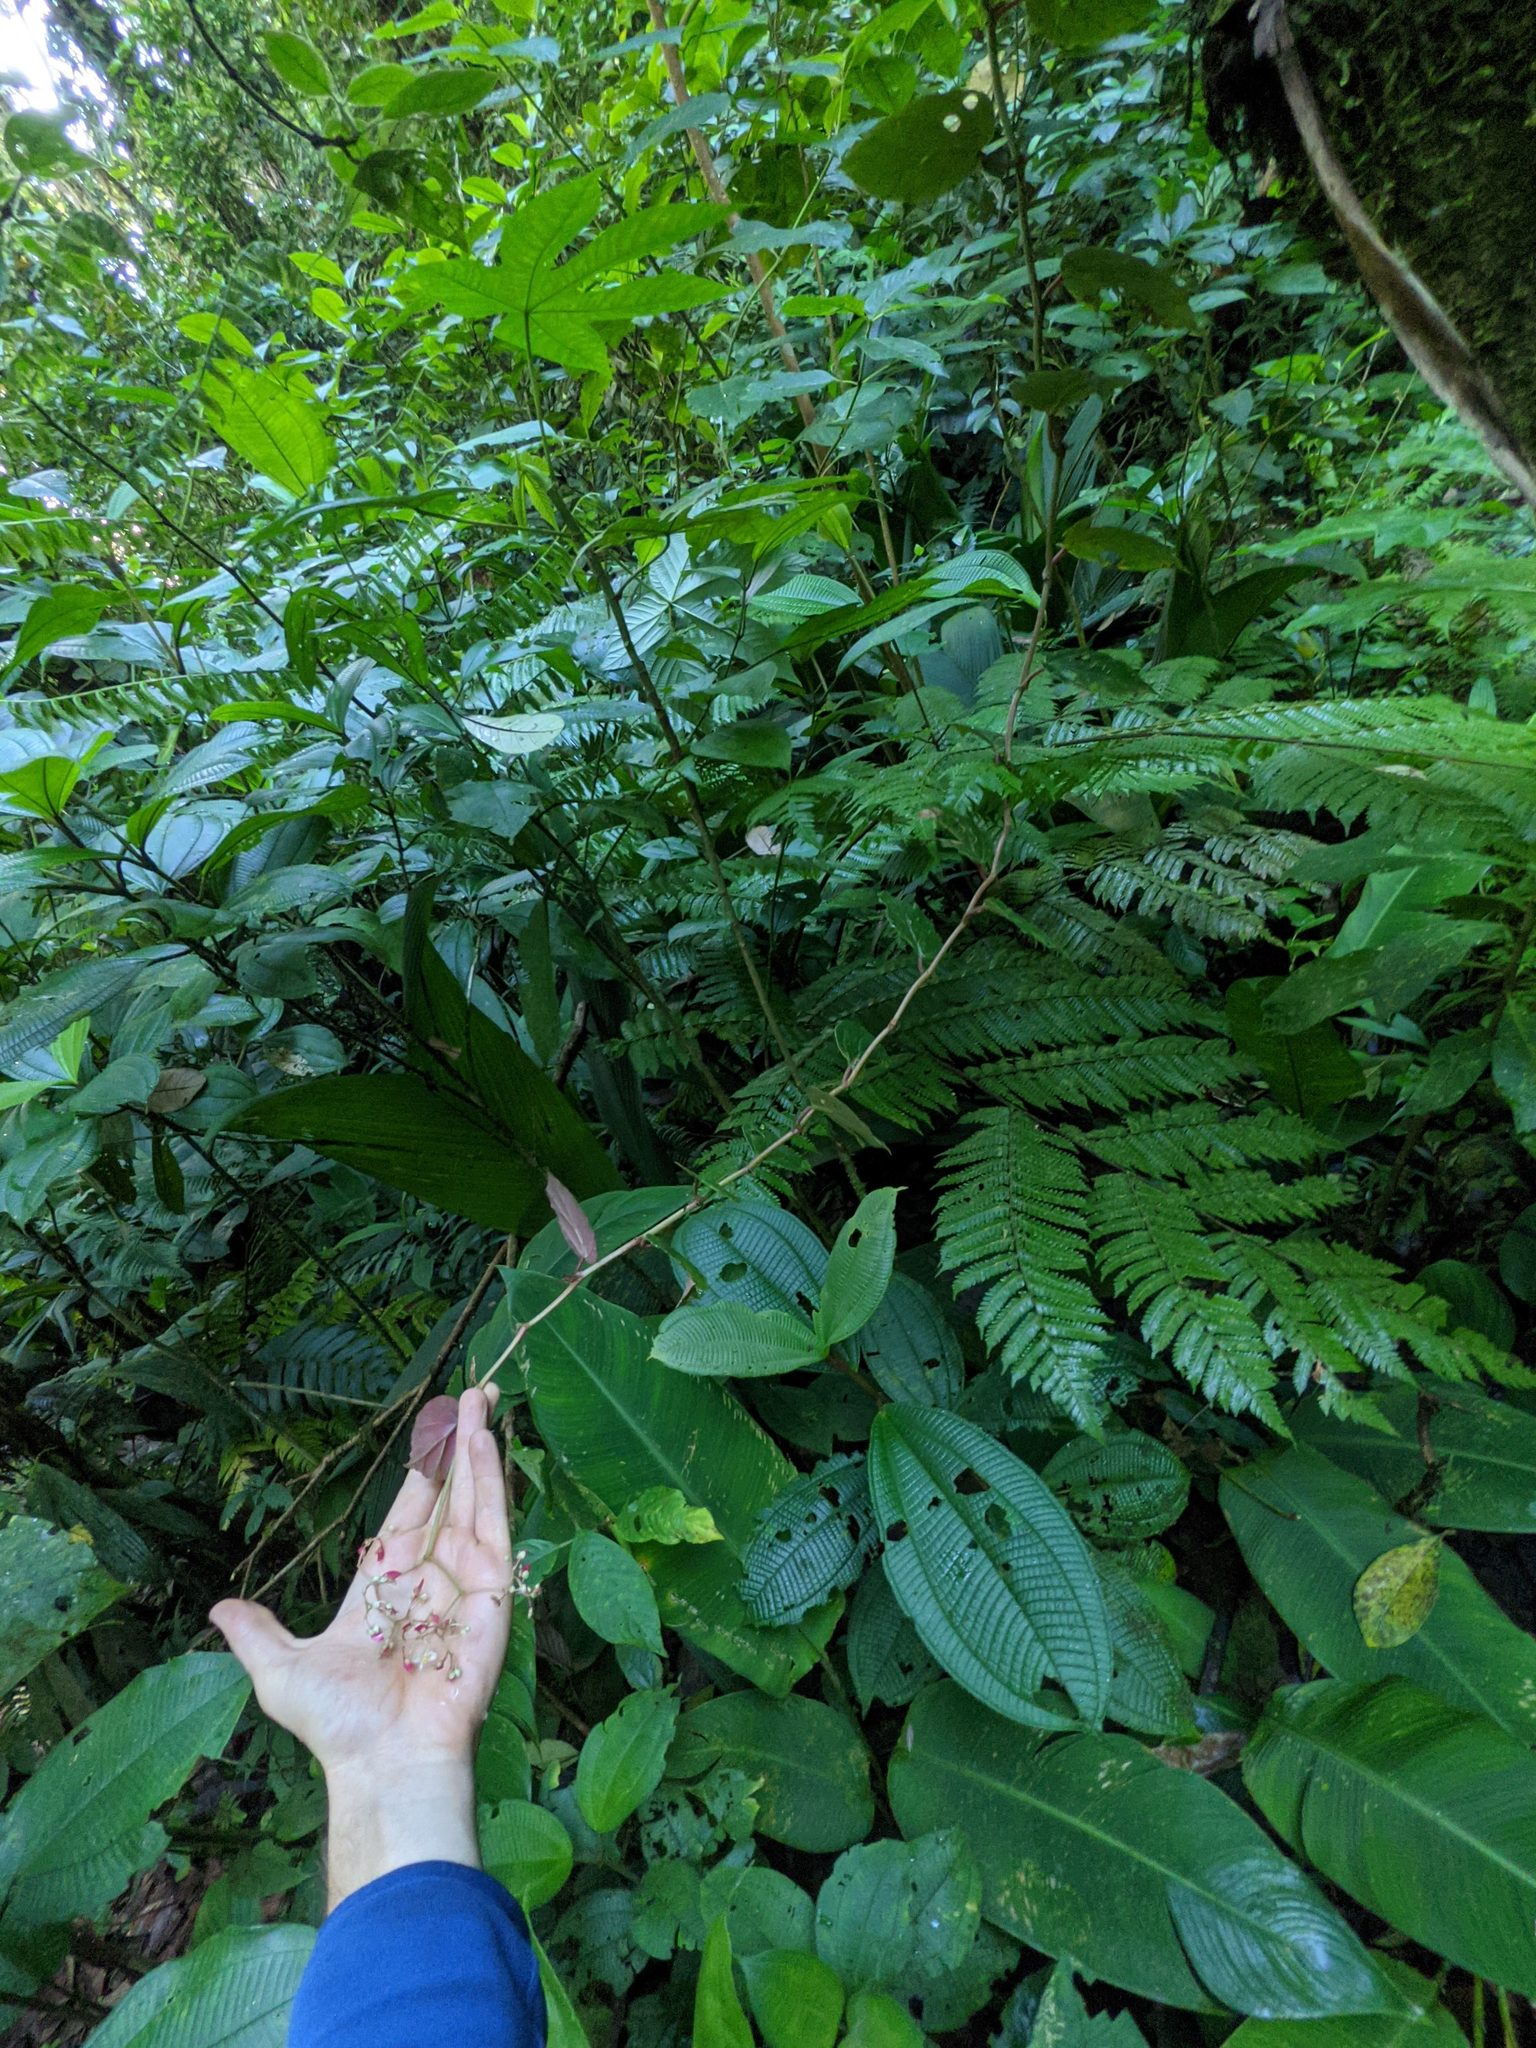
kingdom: Plantae
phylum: Tracheophyta
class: Magnoliopsida
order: Cucurbitales
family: Begoniaceae
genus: Begonia
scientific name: Begonia glabra
